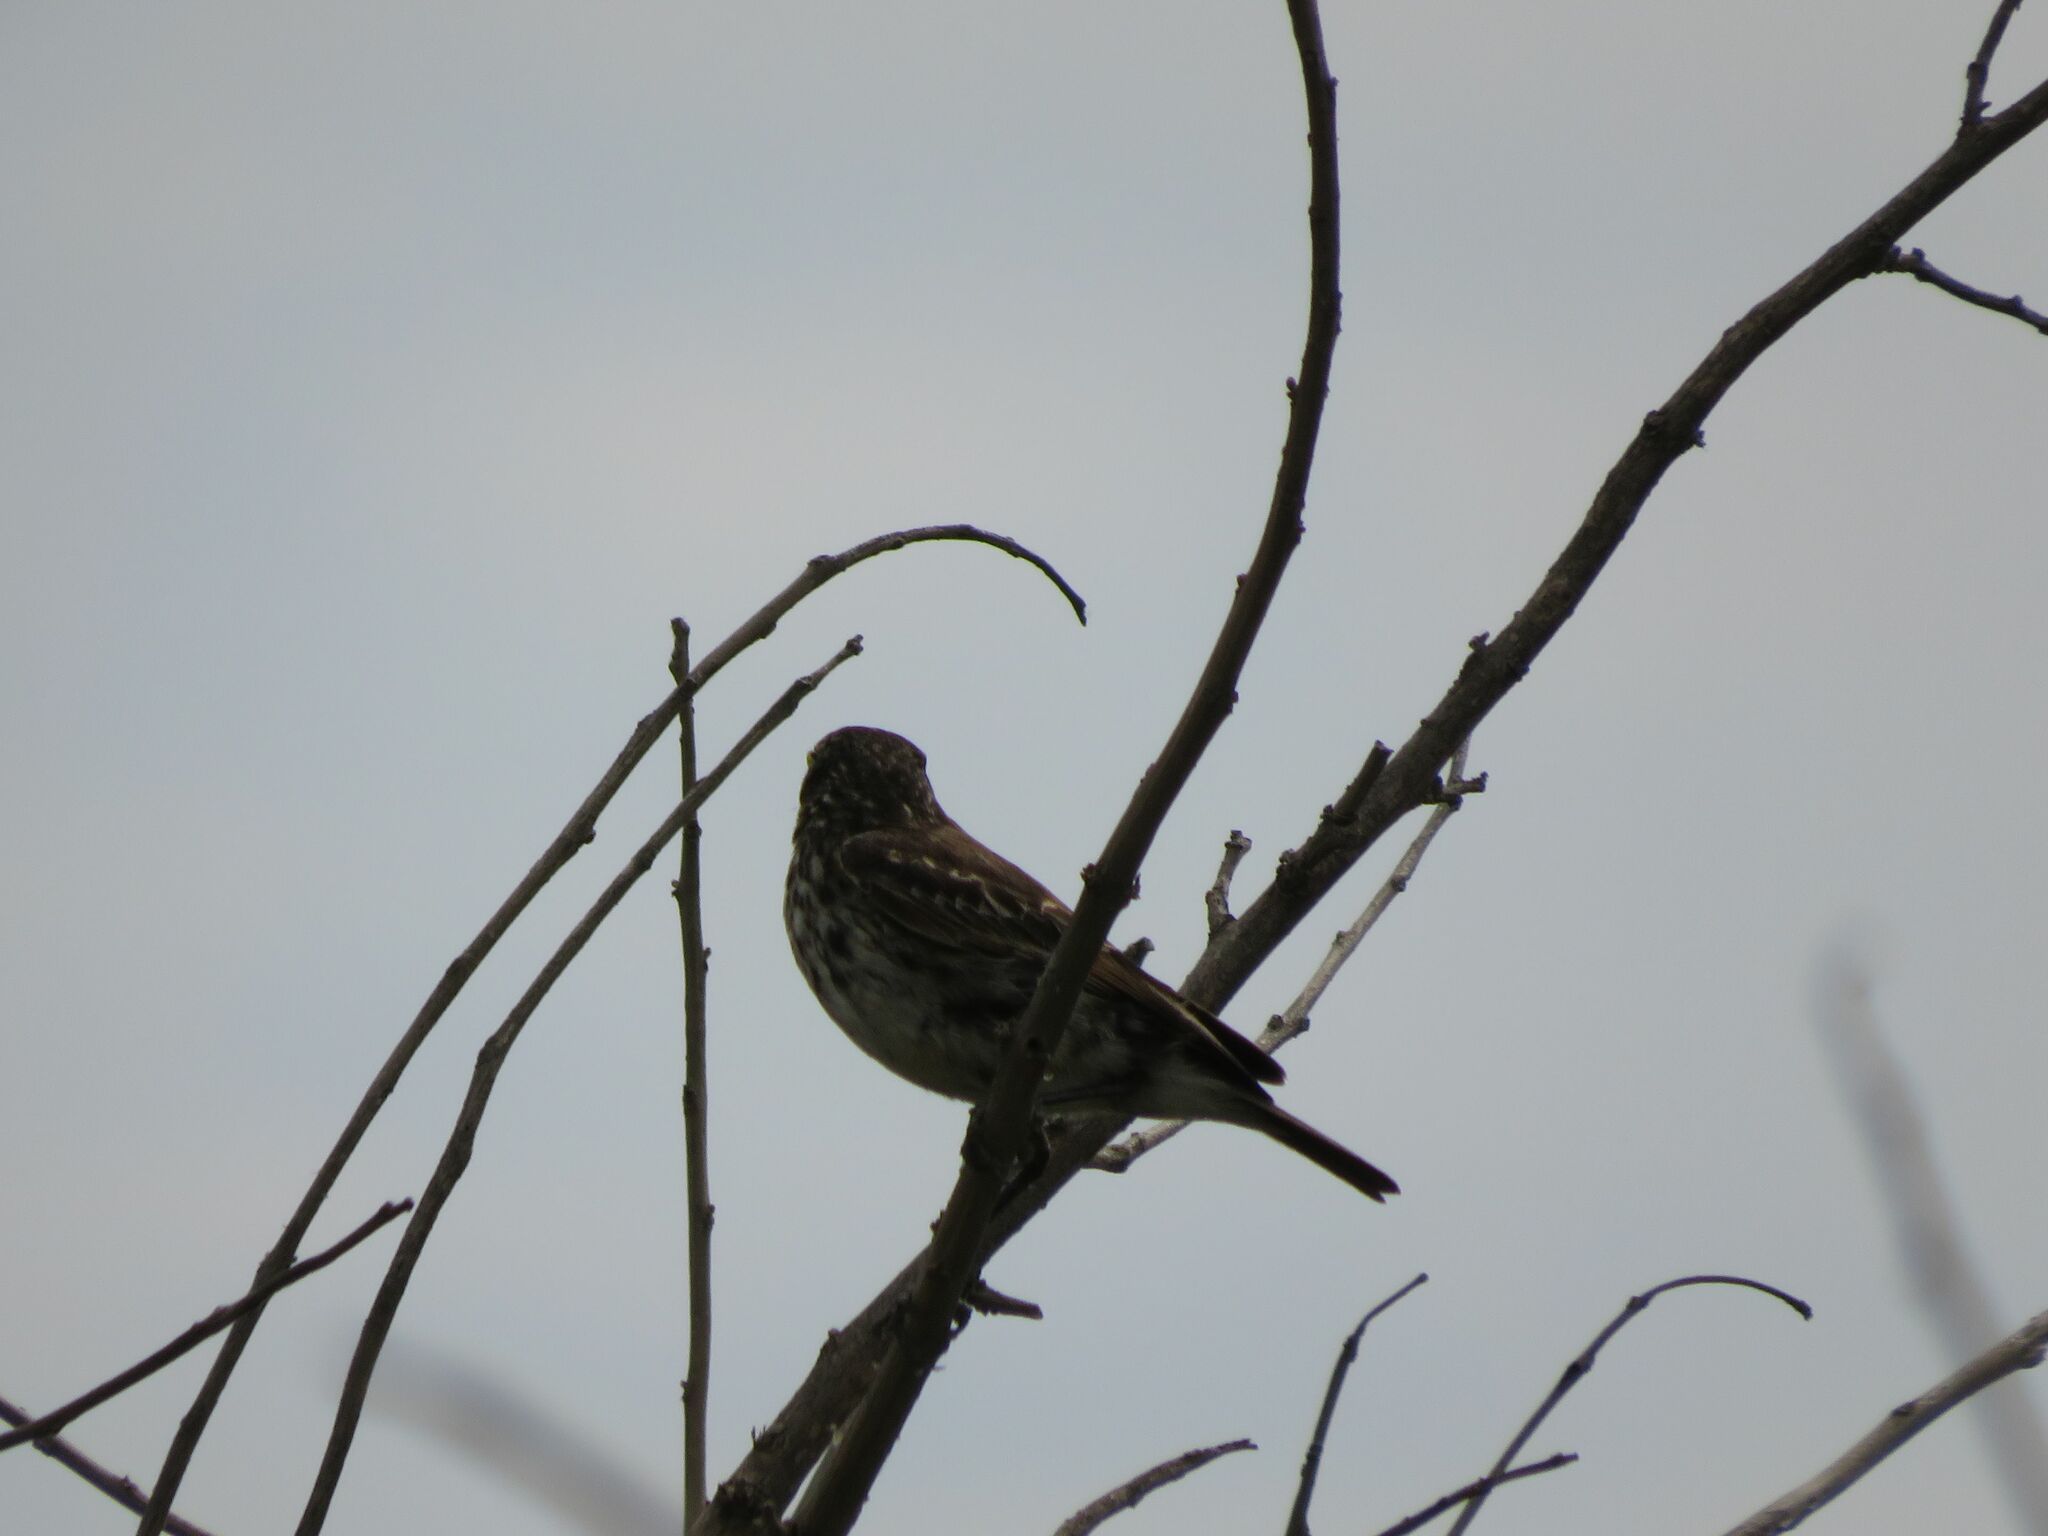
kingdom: Animalia
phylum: Chordata
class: Aves
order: Passeriformes
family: Tyrannidae
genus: Hymenops
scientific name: Hymenops perspicillatus
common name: Spectacled tyrant
